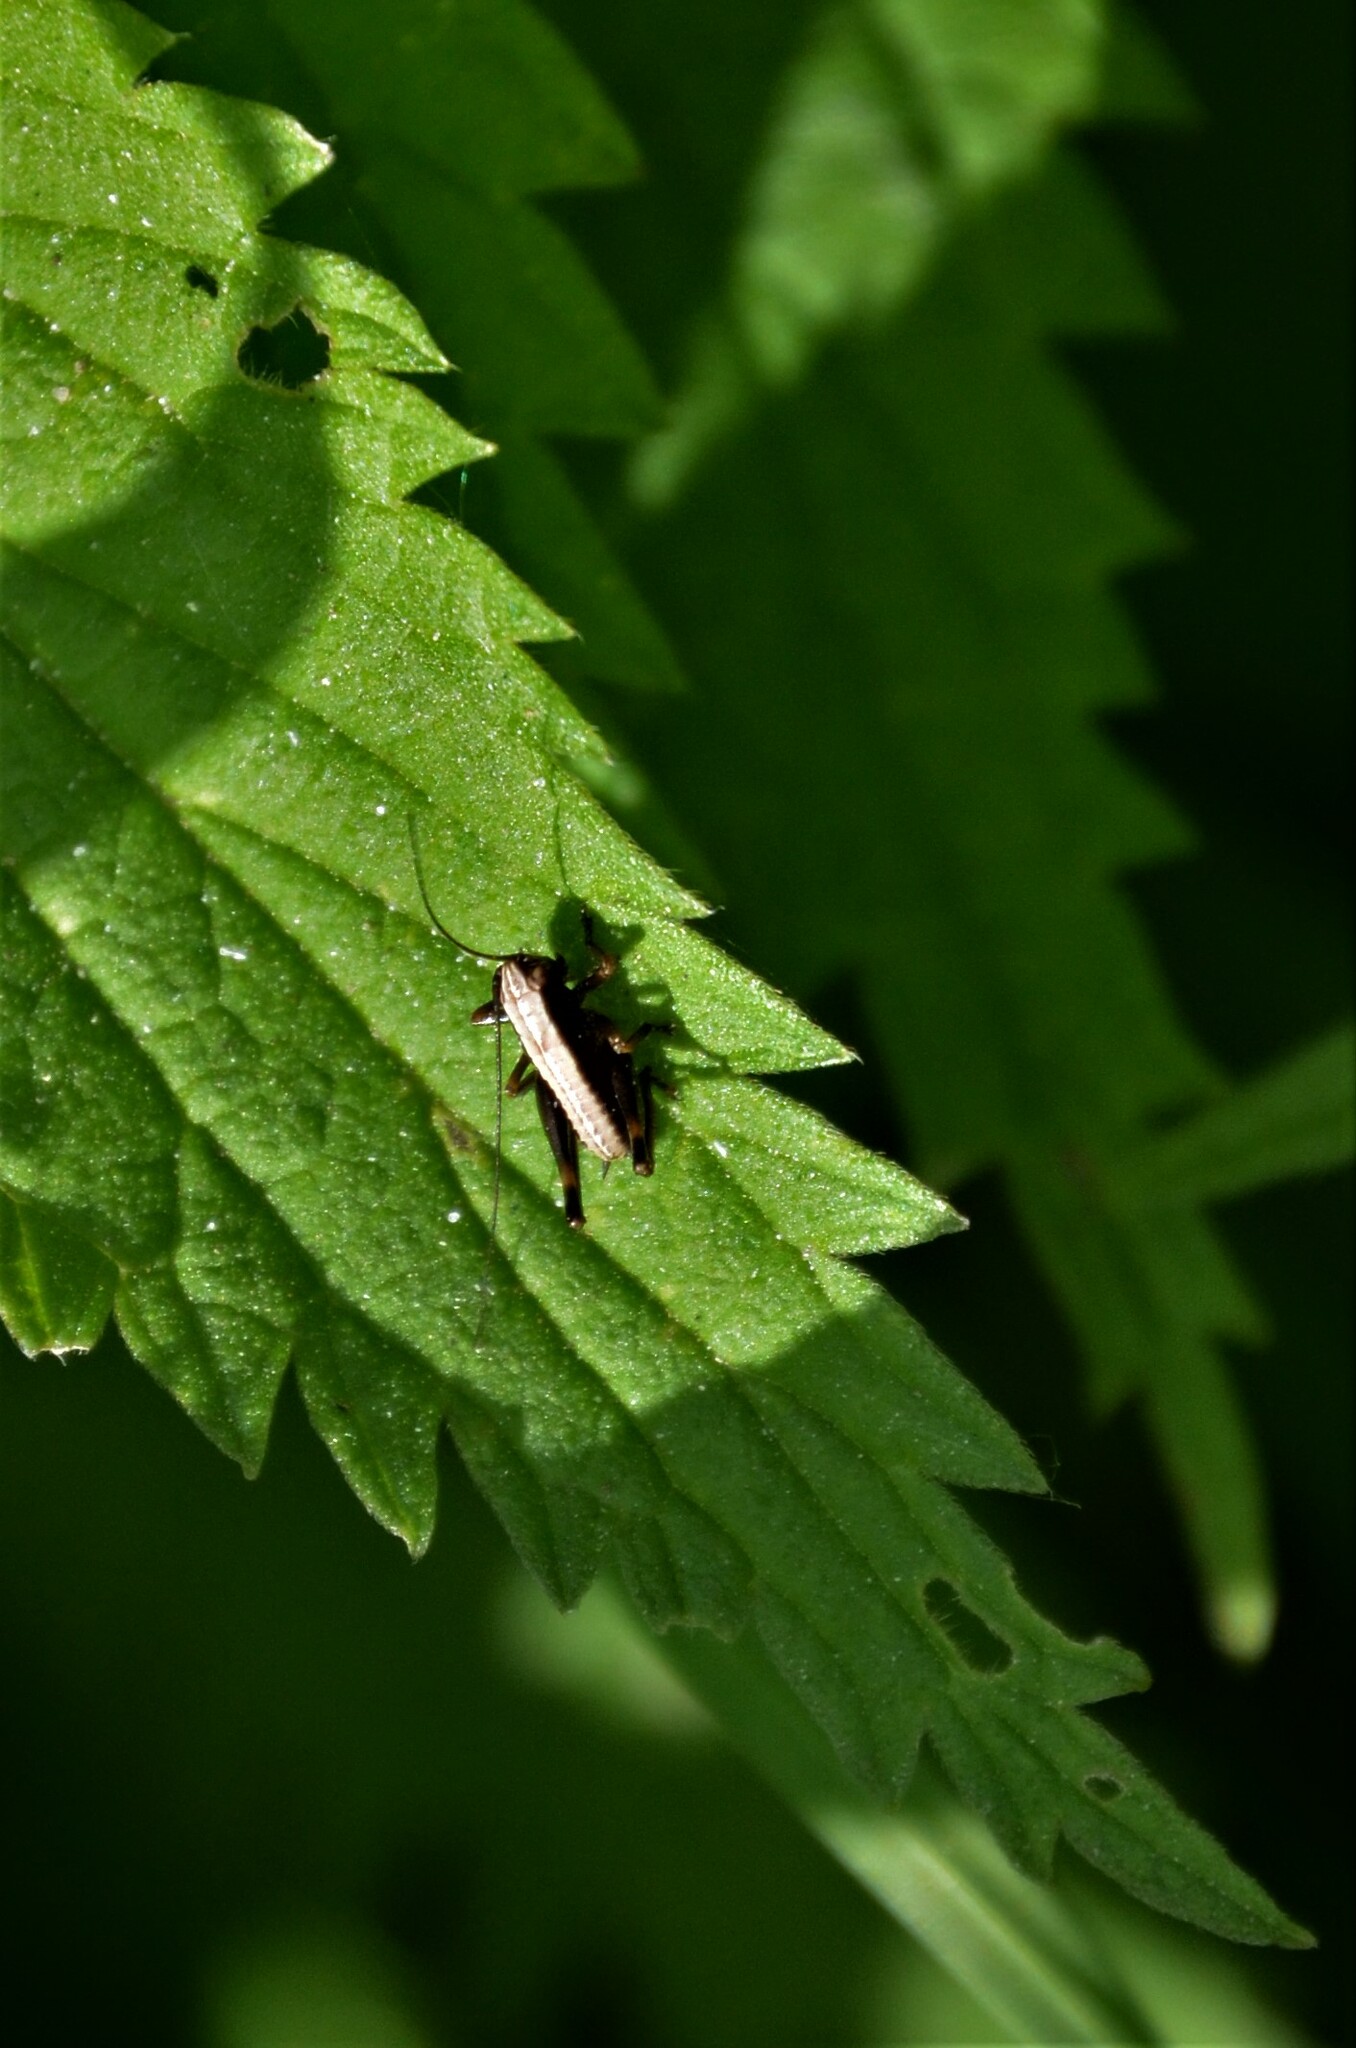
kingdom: Animalia
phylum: Arthropoda
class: Insecta
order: Orthoptera
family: Tettigoniidae
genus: Pholidoptera
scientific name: Pholidoptera griseoaptera
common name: Dark bush-cricket
